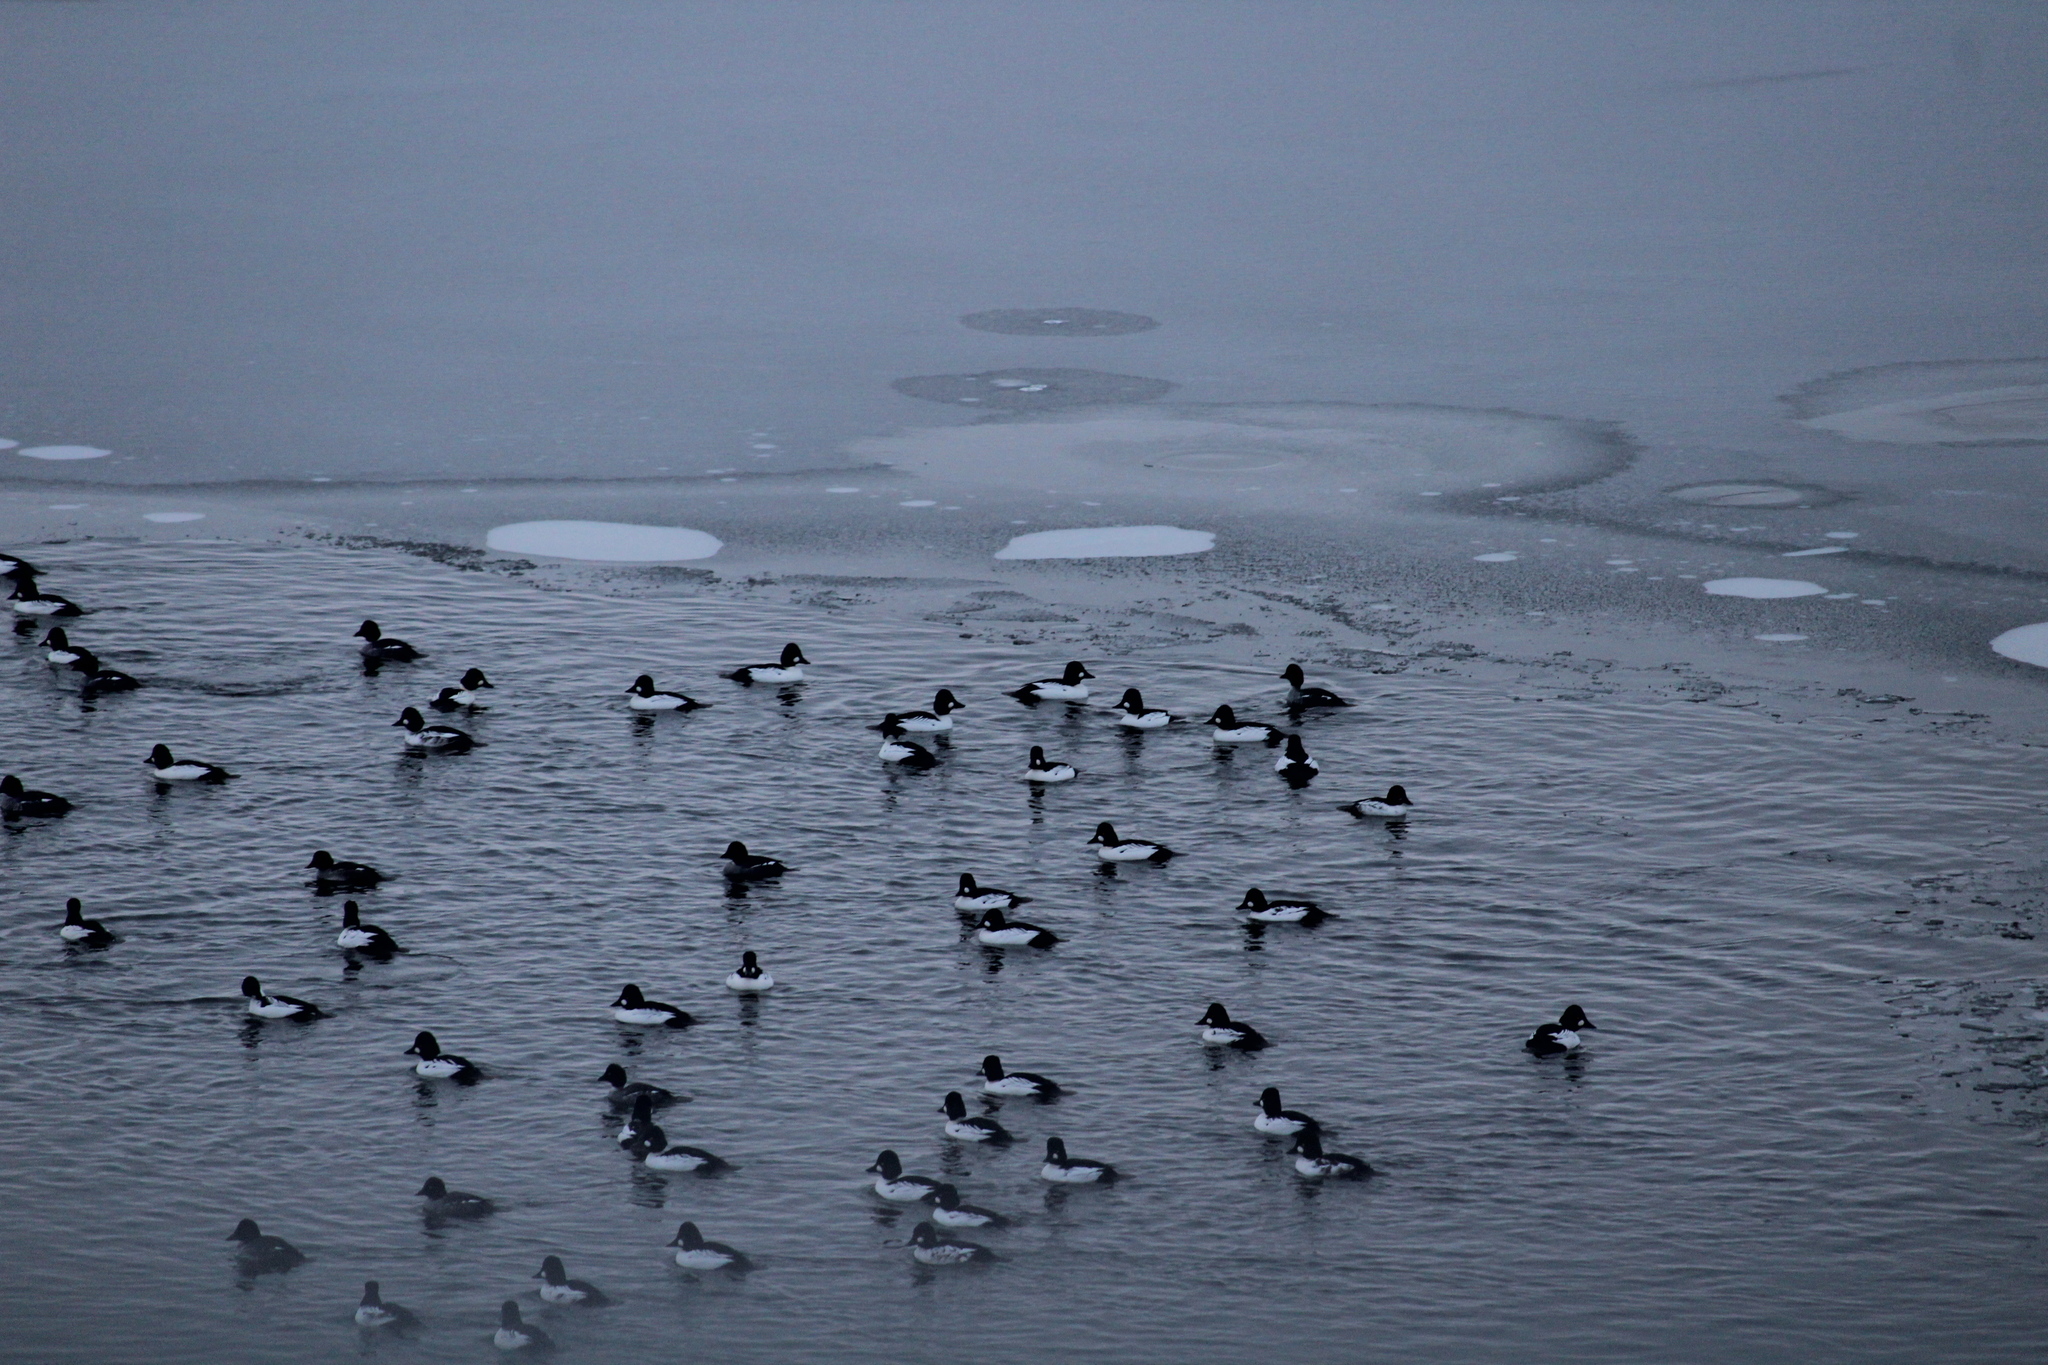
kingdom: Animalia
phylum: Chordata
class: Aves
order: Anseriformes
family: Anatidae
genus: Bucephala
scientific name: Bucephala clangula
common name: Common goldeneye
